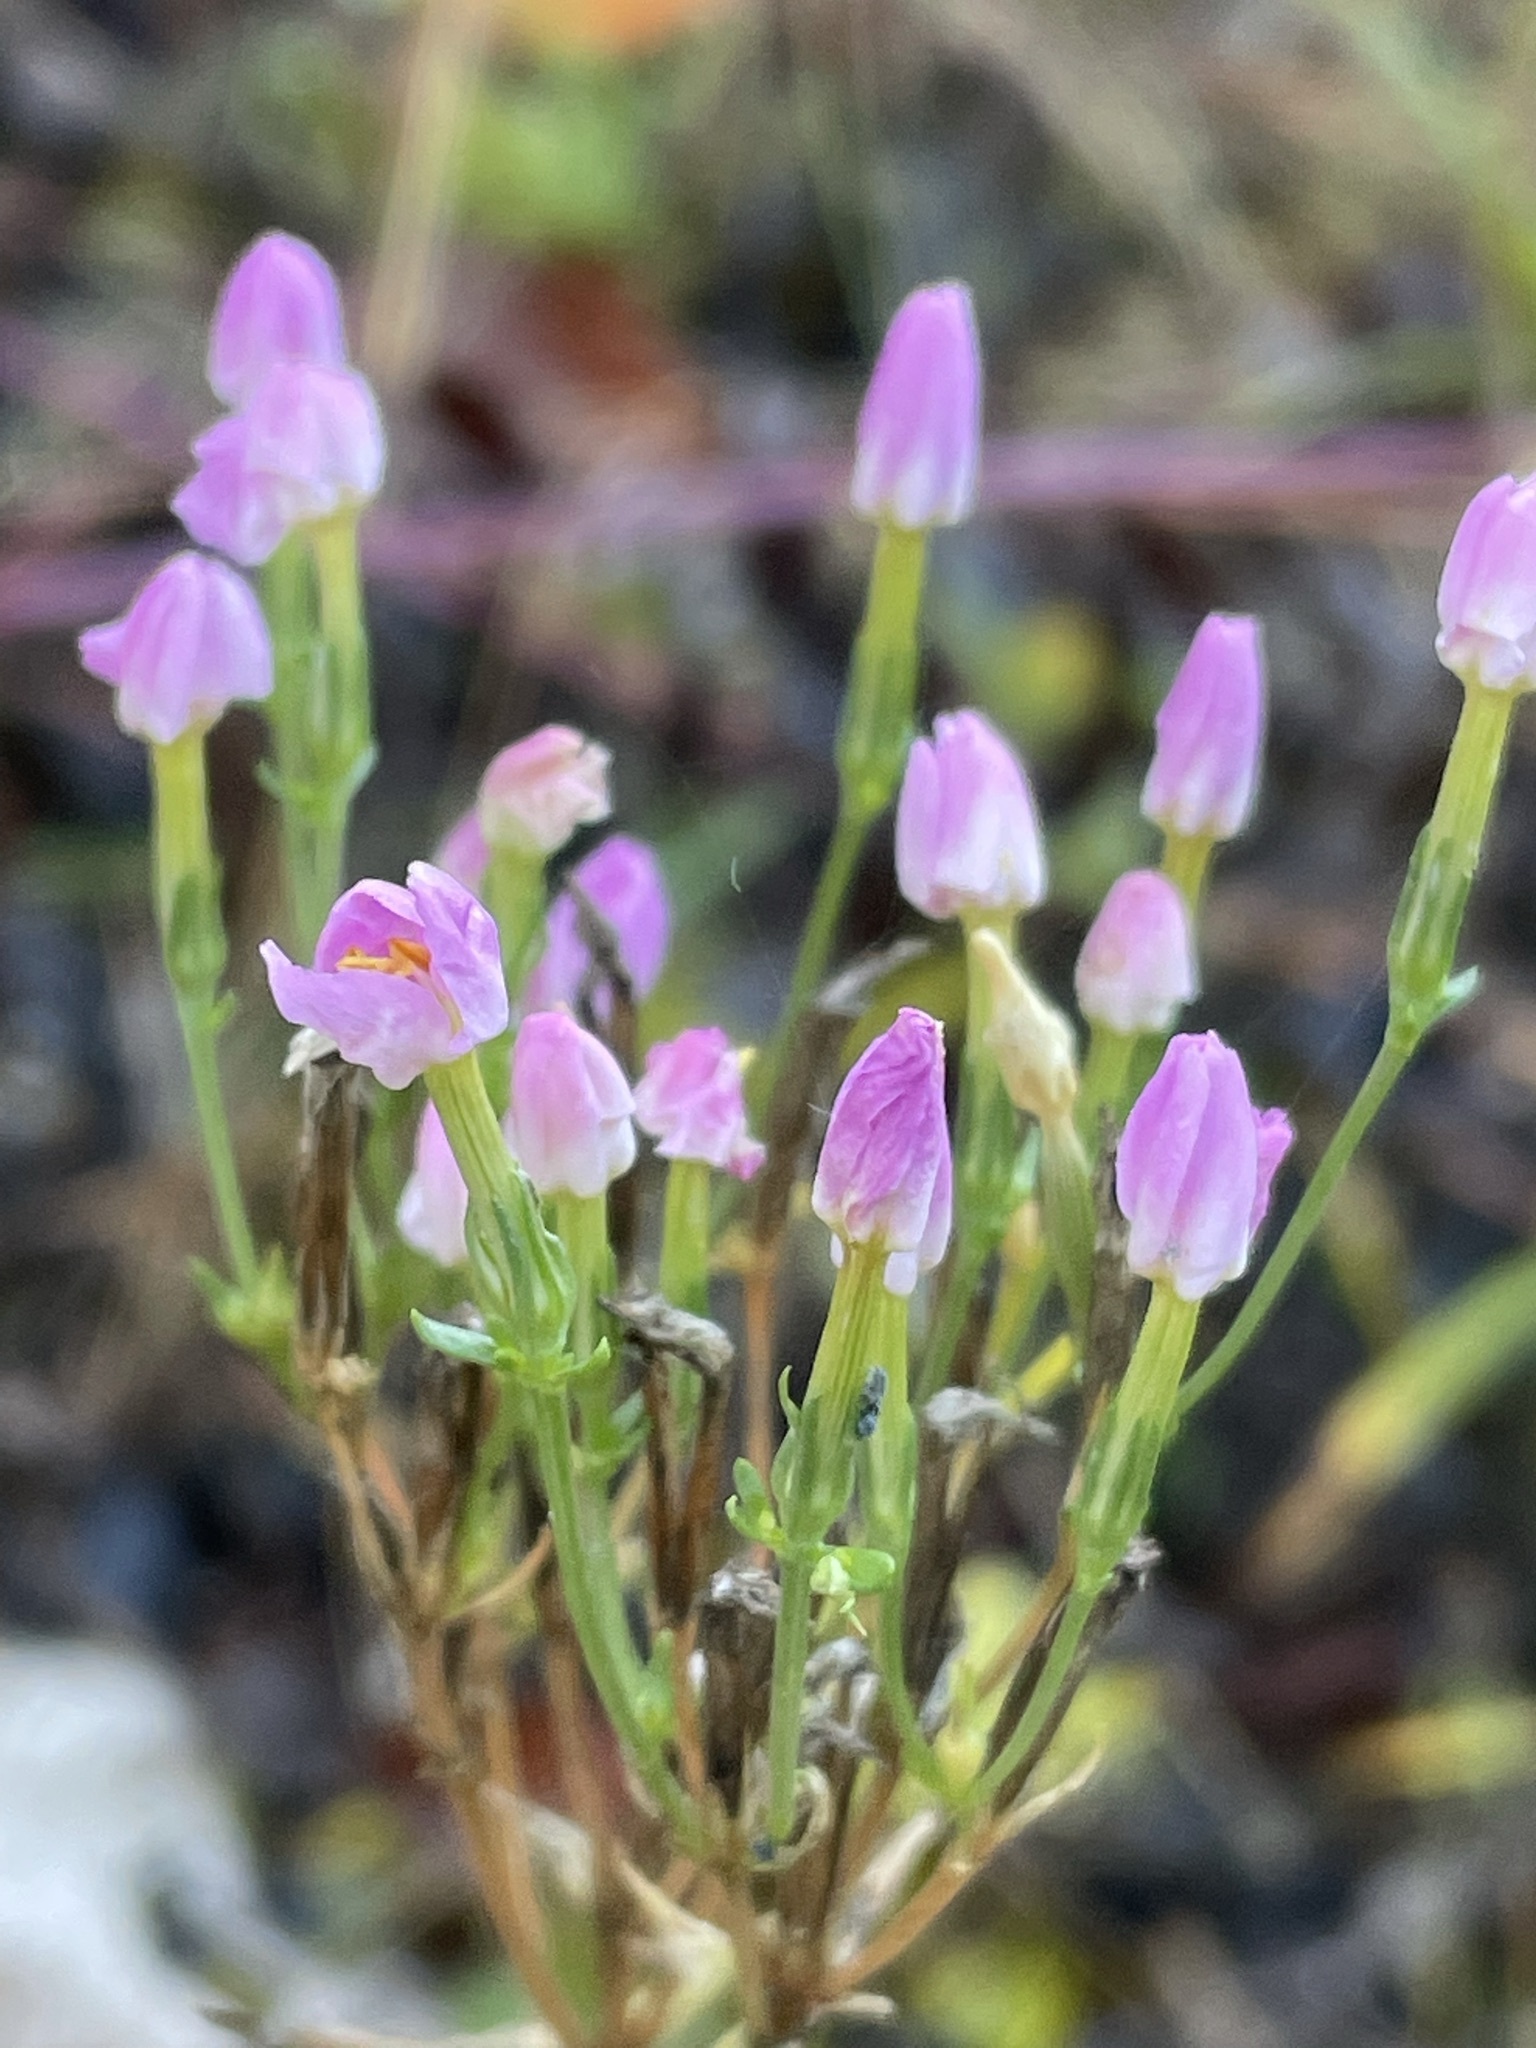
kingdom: Plantae
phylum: Tracheophyta
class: Magnoliopsida
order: Gentianales
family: Gentianaceae
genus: Centaurium
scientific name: Centaurium erythraea
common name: Common centaury
